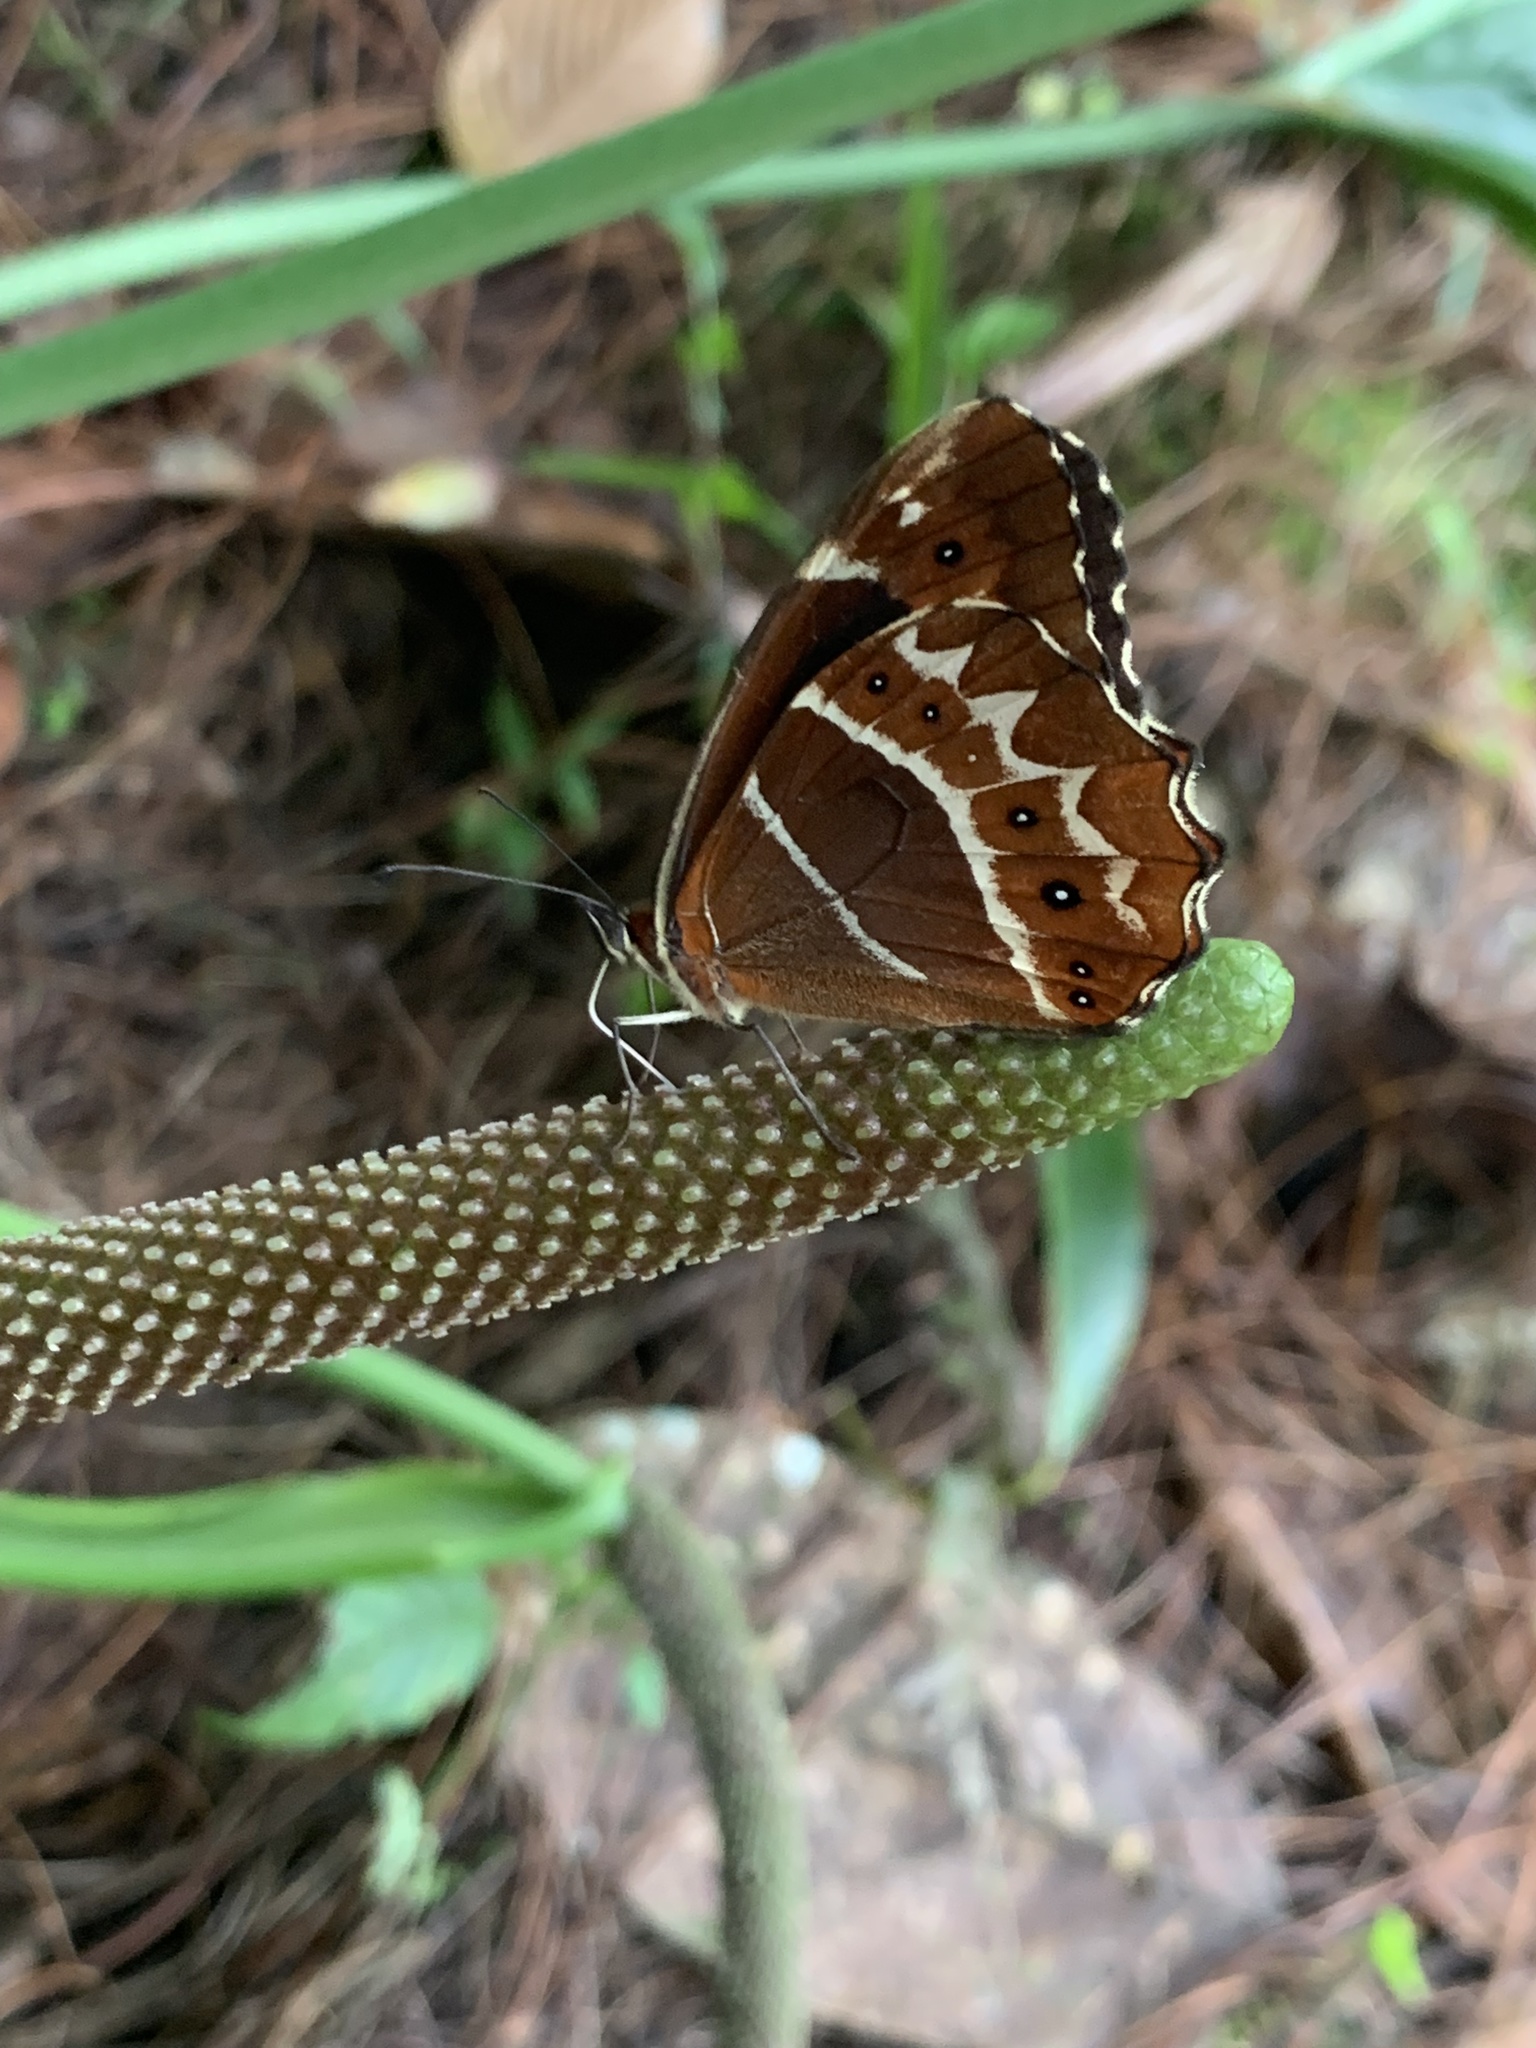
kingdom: Animalia
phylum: Arthropoda
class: Insecta
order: Lepidoptera
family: Nymphalidae
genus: Oxeoschistus
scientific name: Oxeoschistus puerta
